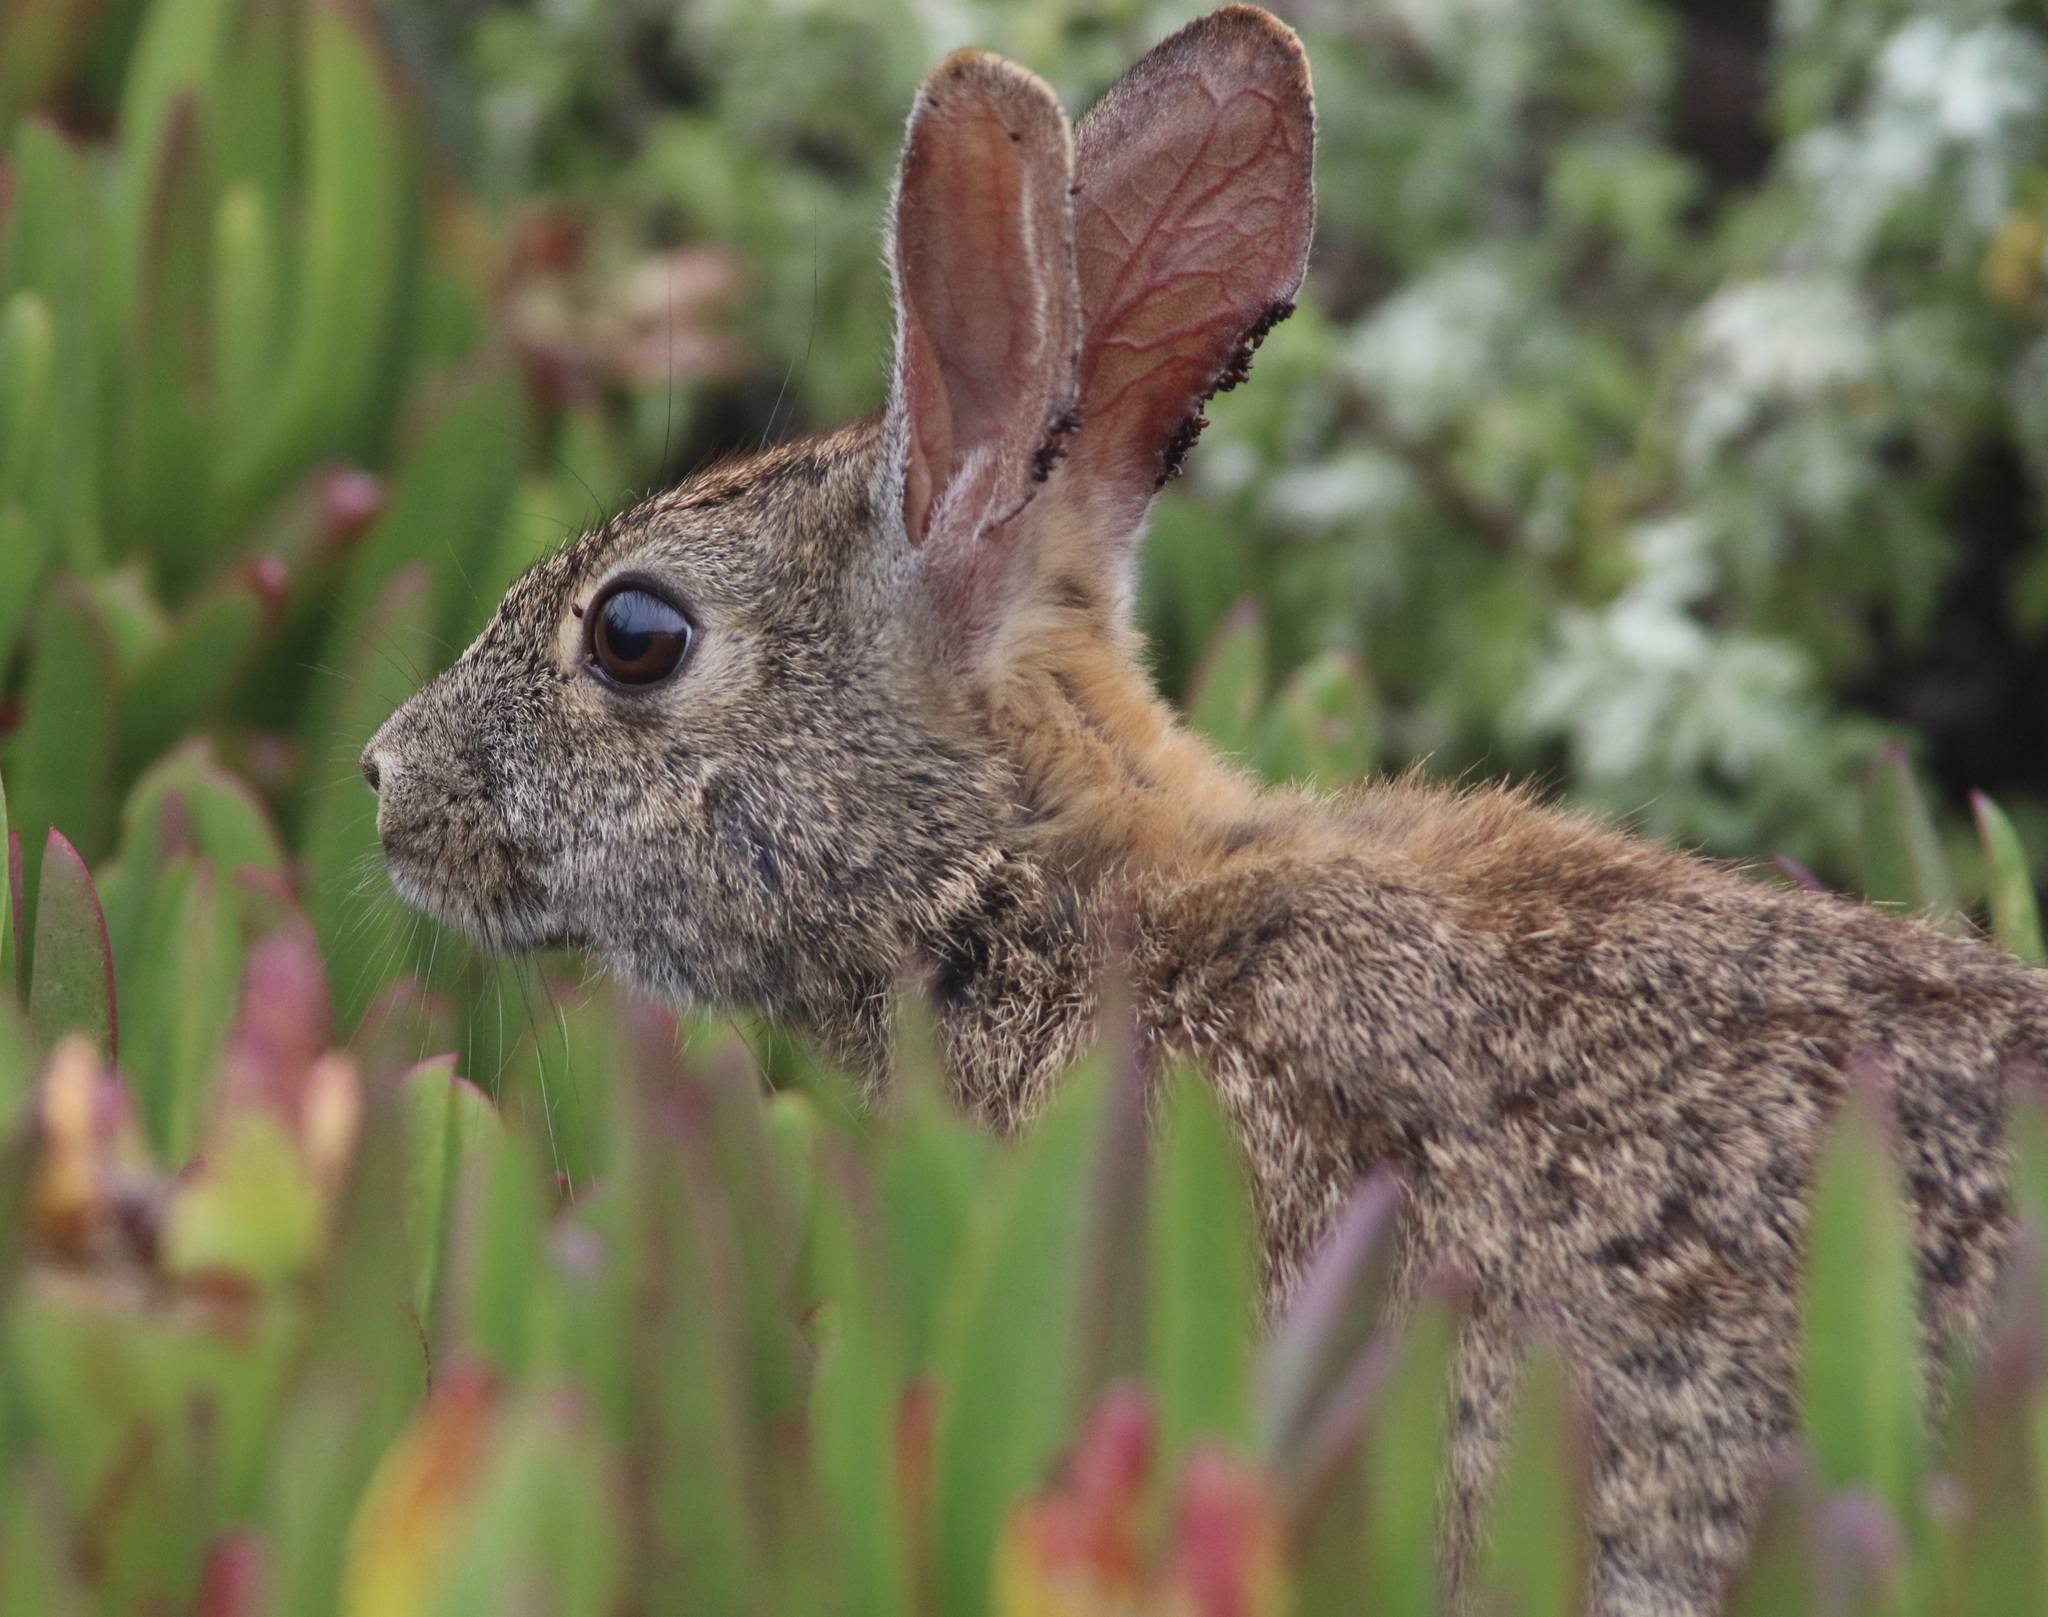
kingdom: Animalia
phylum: Chordata
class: Mammalia
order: Lagomorpha
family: Leporidae
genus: Sylvilagus
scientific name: Sylvilagus bachmani
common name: Brush rabbit
